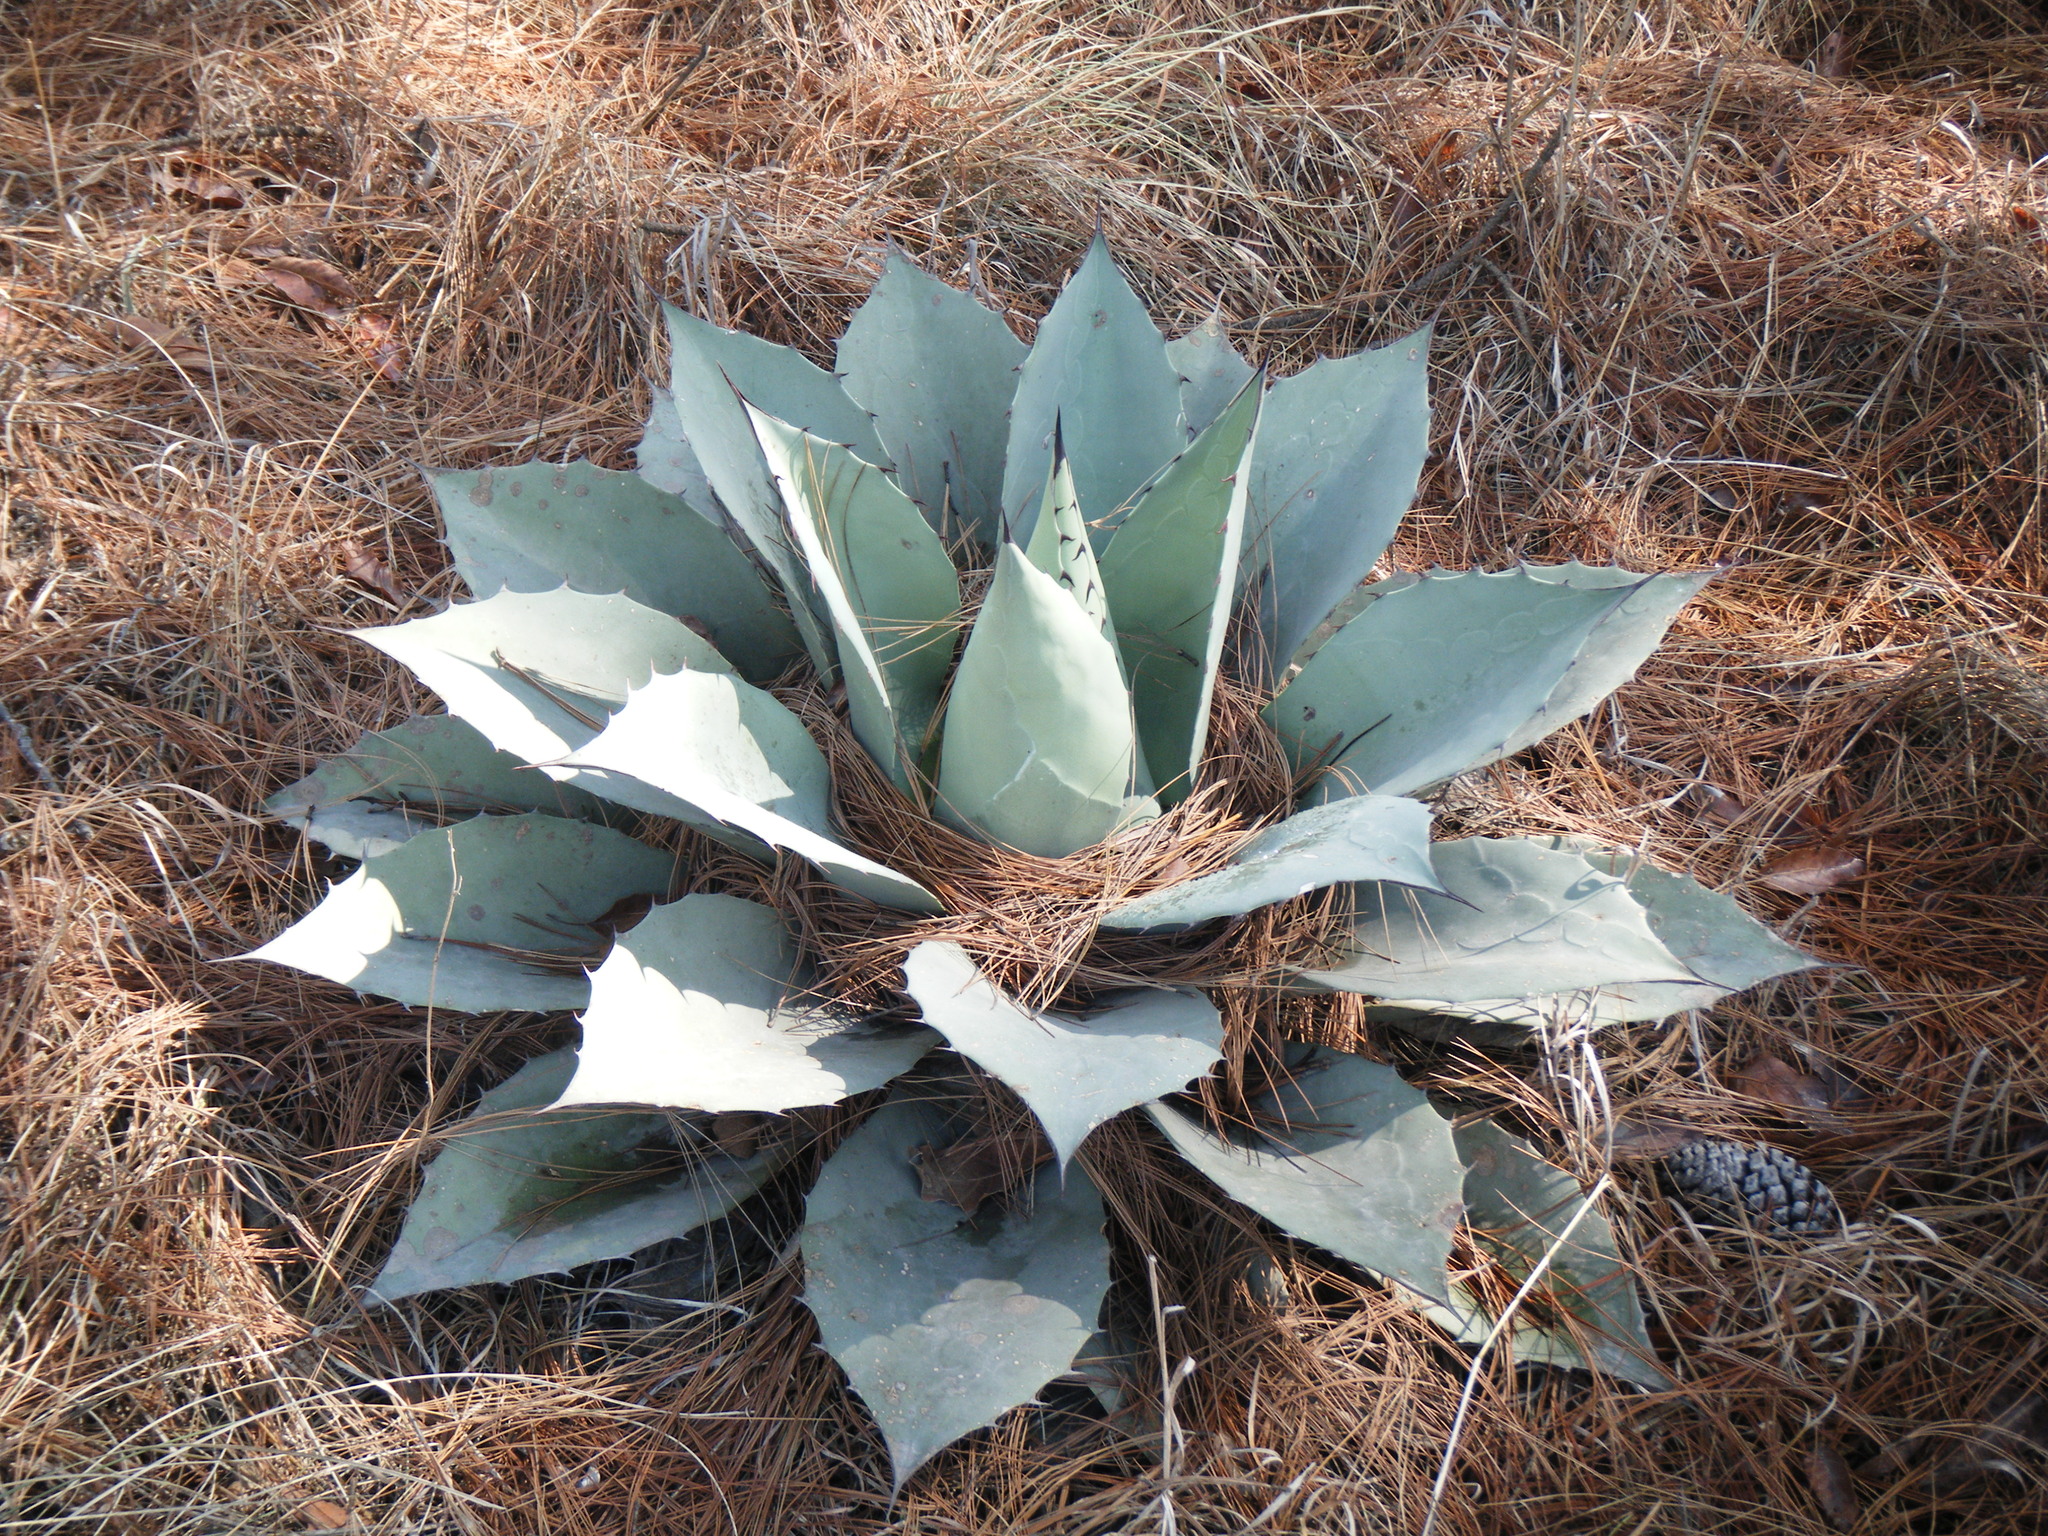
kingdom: Plantae
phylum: Tracheophyta
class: Liliopsida
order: Asparagales
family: Asparagaceae
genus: Agave
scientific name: Agave ovatifolia
